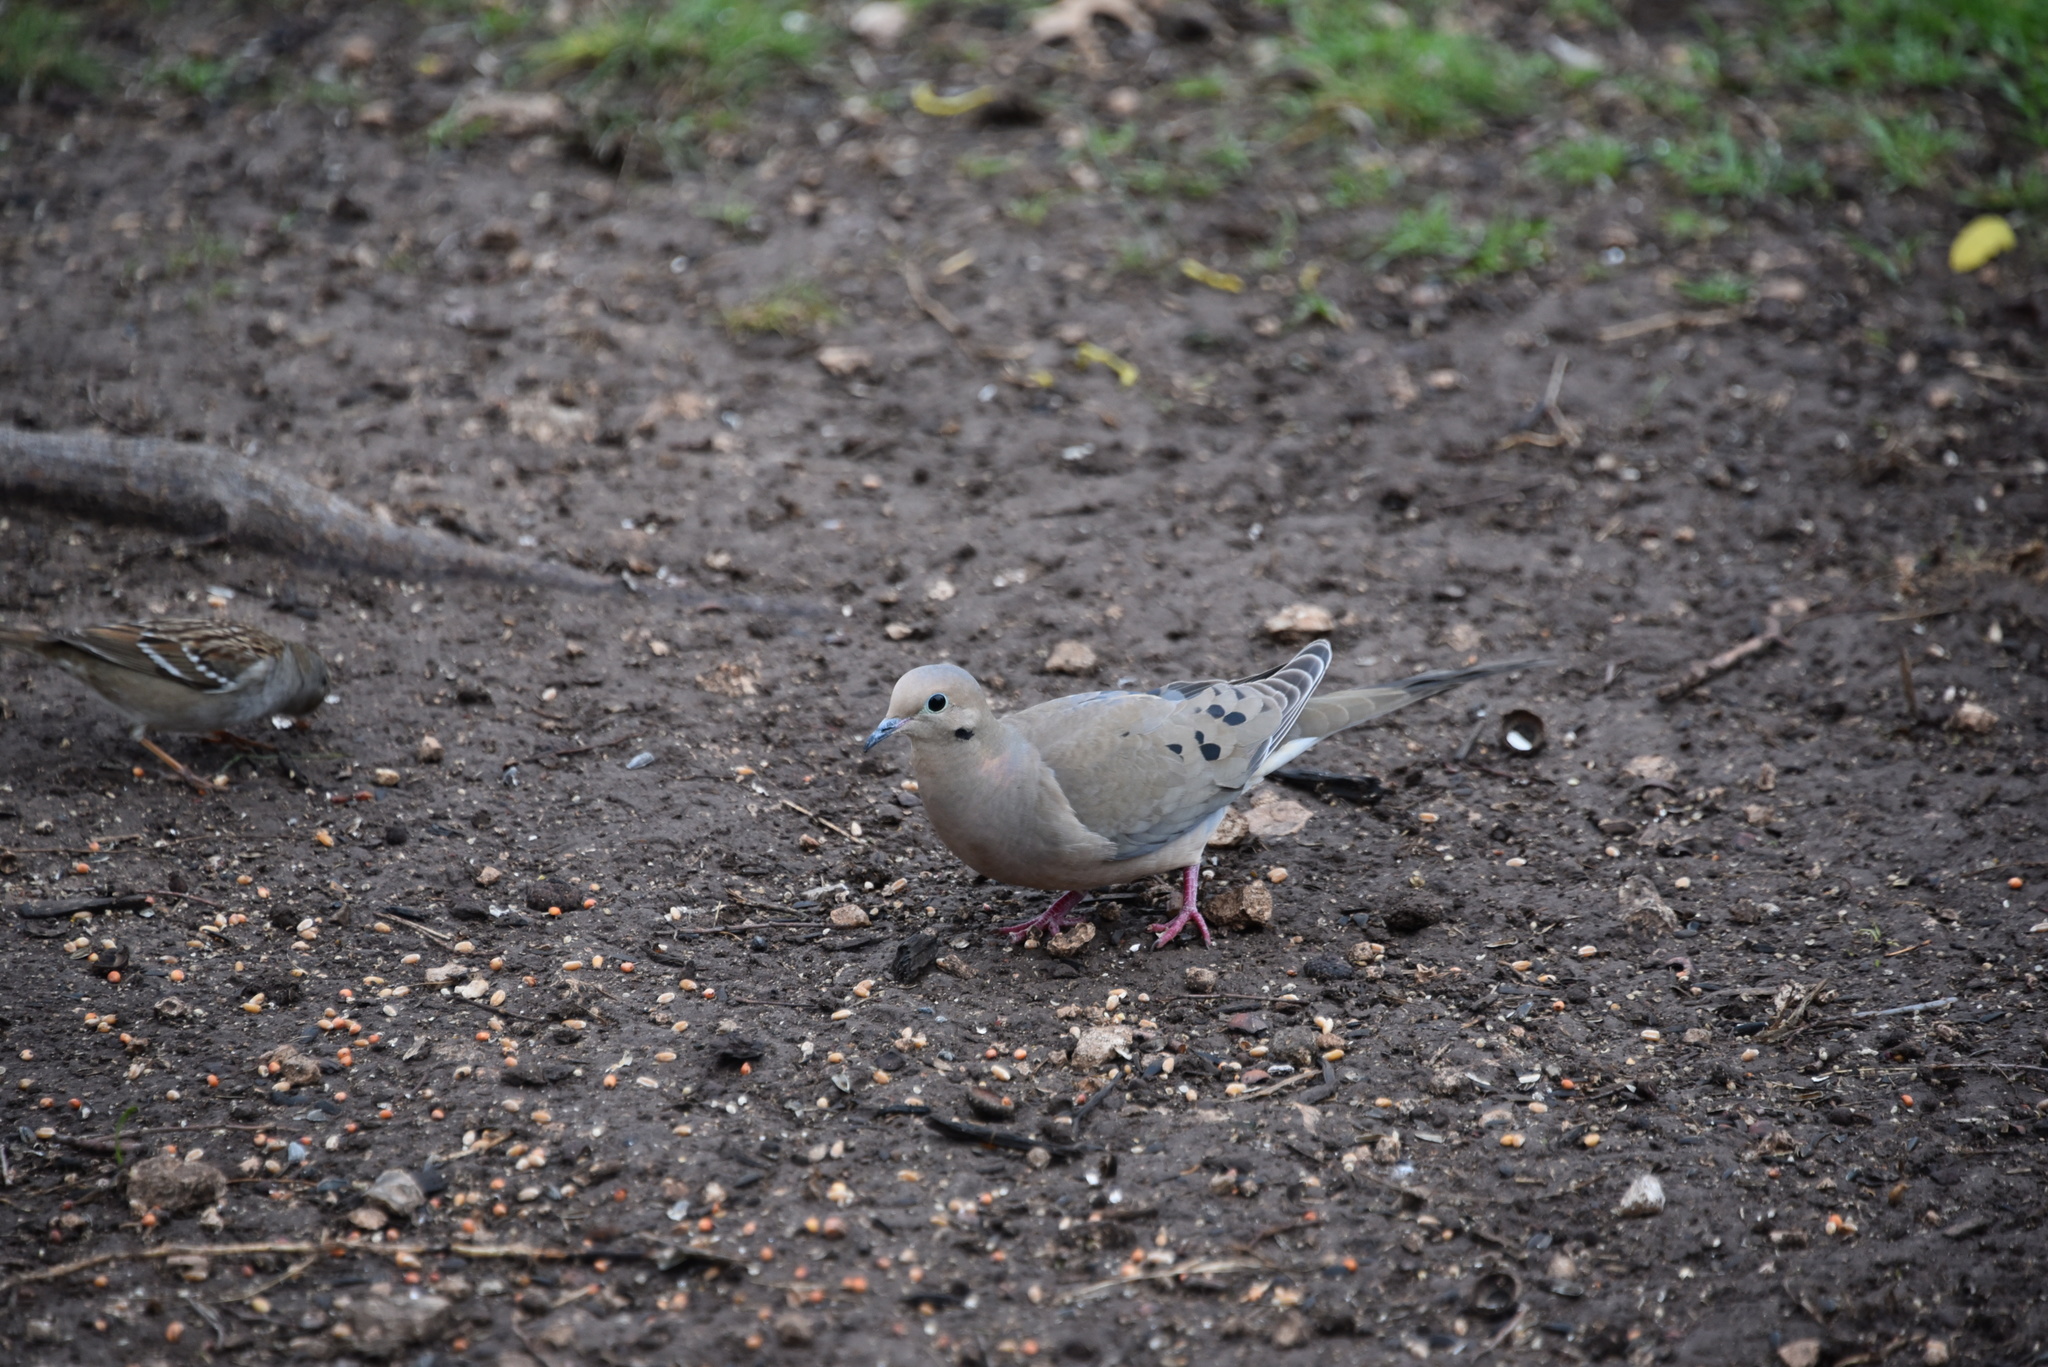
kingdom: Animalia
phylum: Chordata
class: Aves
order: Columbiformes
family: Columbidae
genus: Zenaida
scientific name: Zenaida macroura
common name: Mourning dove
